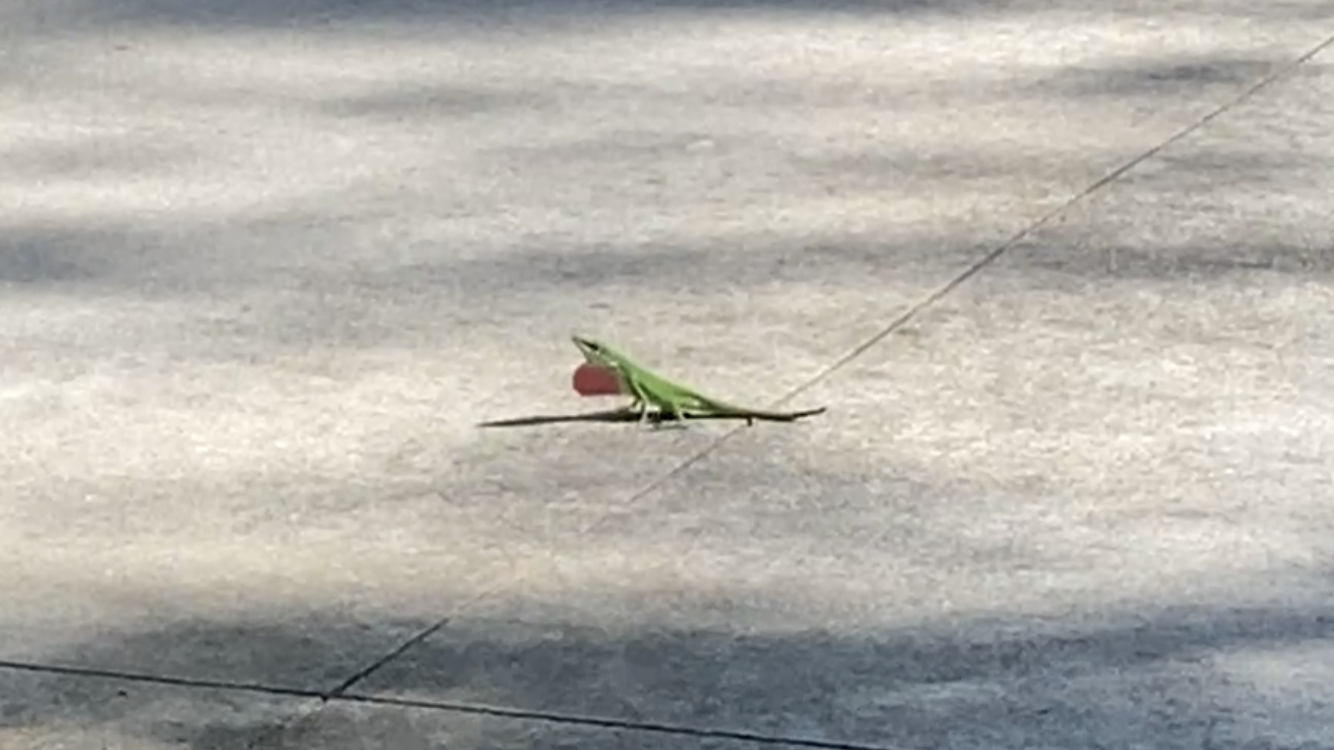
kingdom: Animalia
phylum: Chordata
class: Squamata
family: Dactyloidae
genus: Anolis
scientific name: Anolis carolinensis
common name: Green anole
